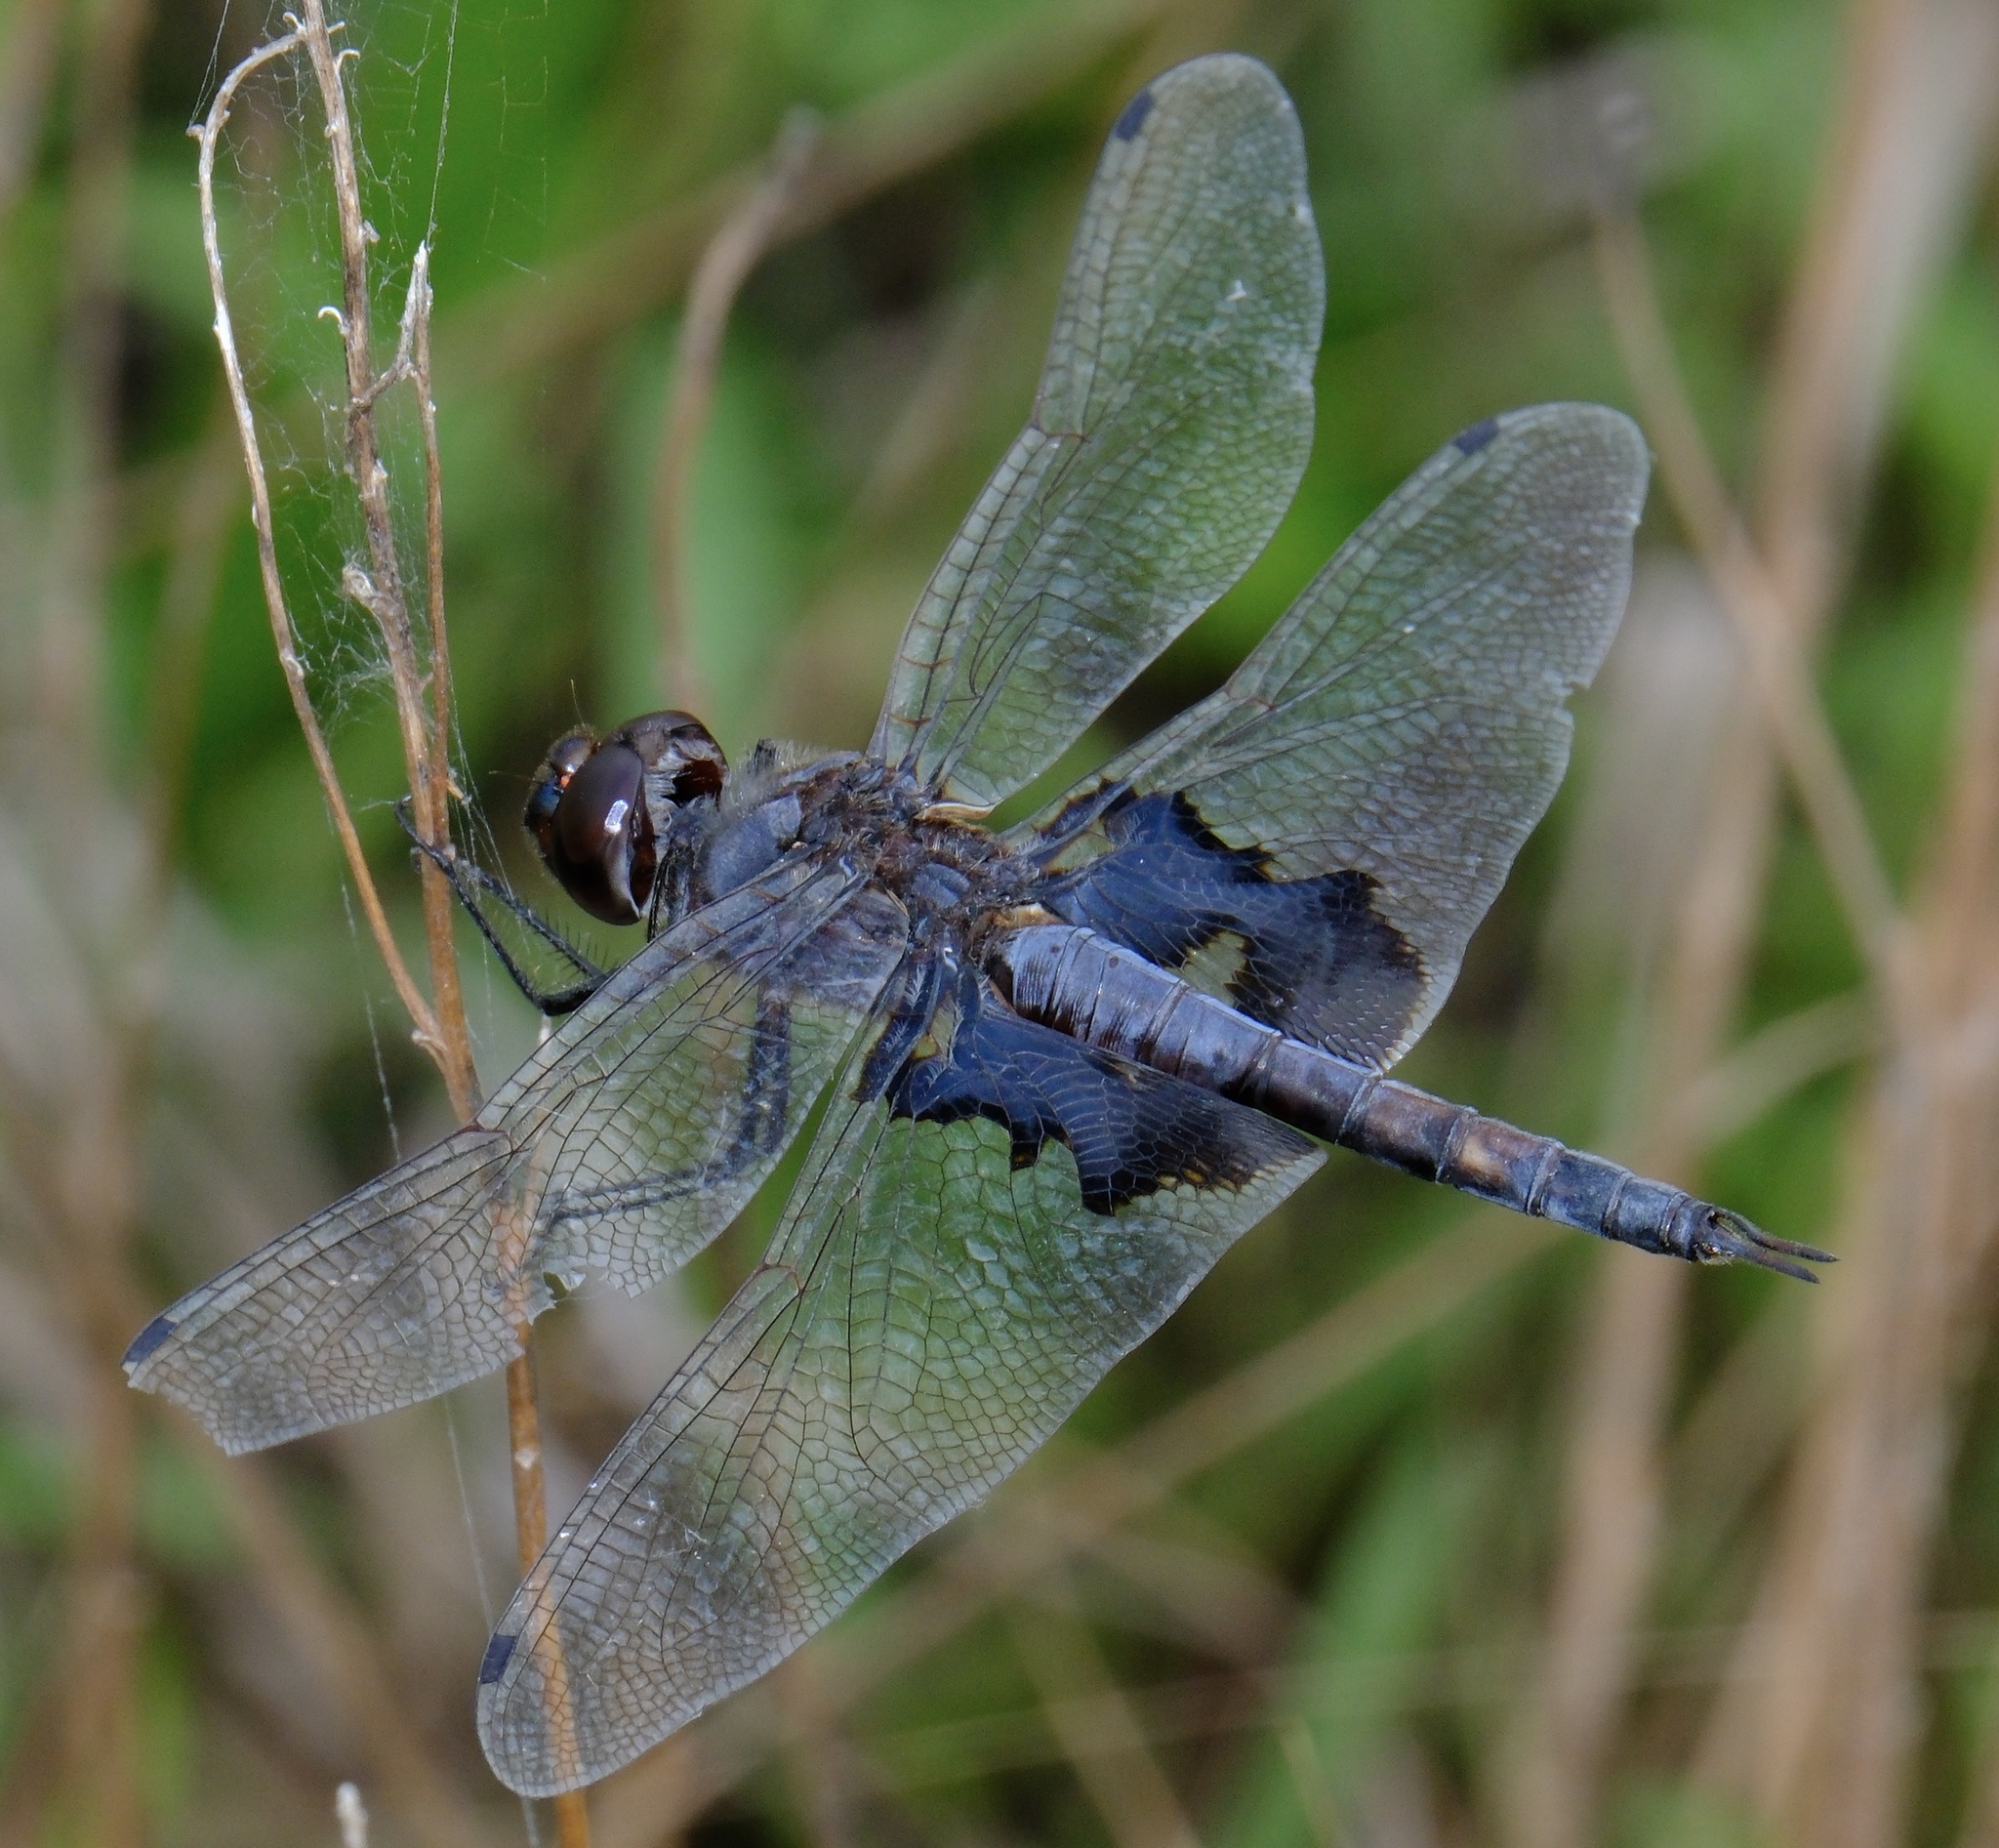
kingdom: Animalia
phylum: Arthropoda
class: Insecta
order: Odonata
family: Libellulidae
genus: Tramea
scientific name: Tramea lacerata
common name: Black saddlebags
